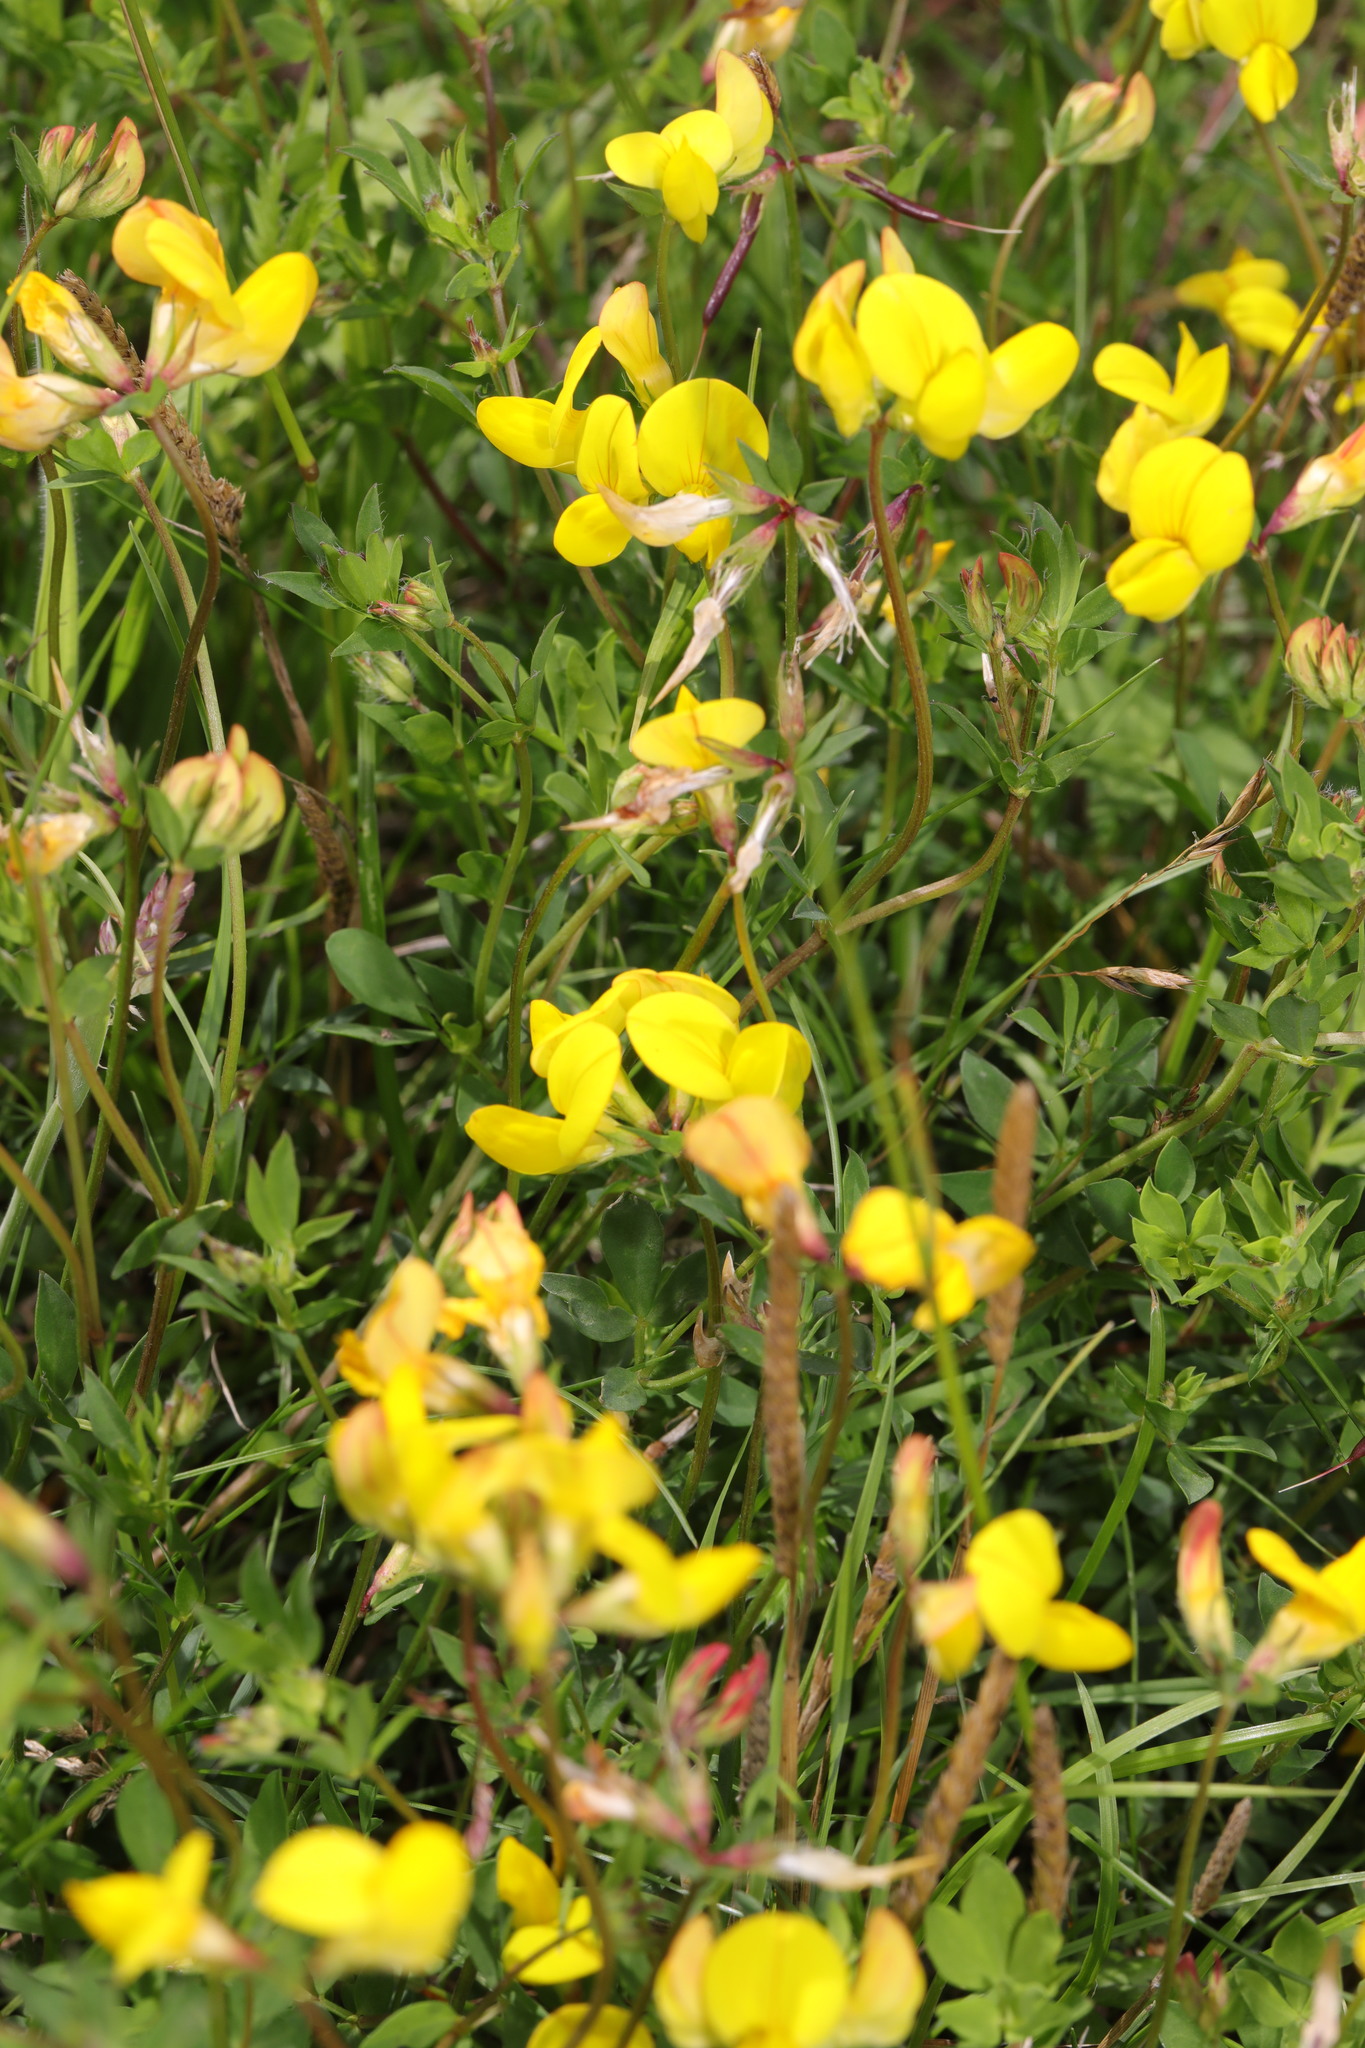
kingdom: Plantae
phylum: Tracheophyta
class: Magnoliopsida
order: Fabales
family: Fabaceae
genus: Lotus
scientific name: Lotus corniculatus
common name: Common bird's-foot-trefoil
